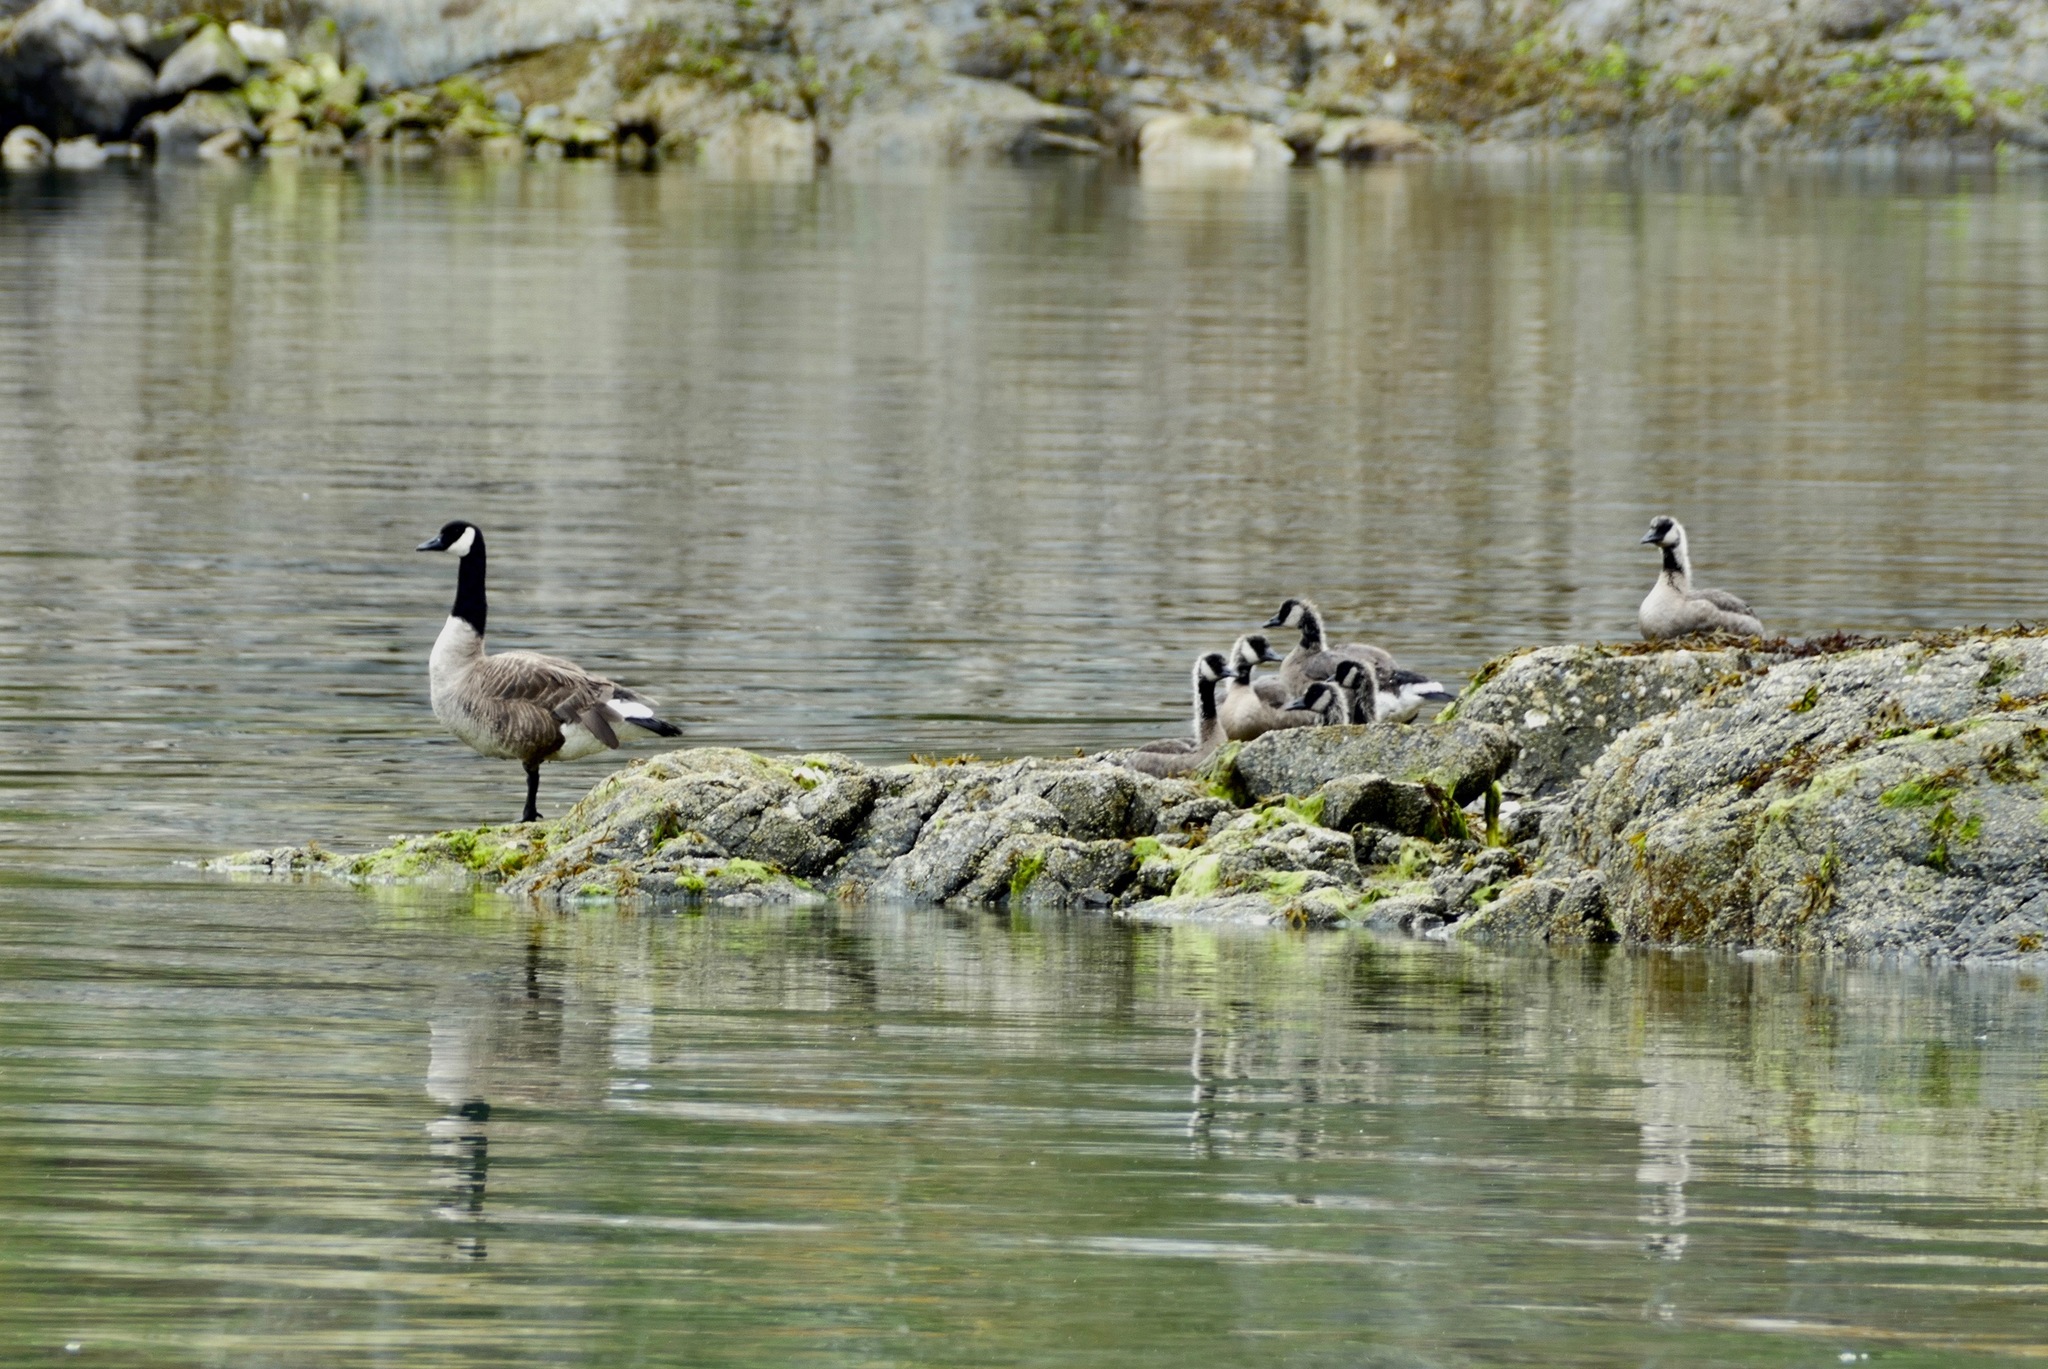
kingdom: Animalia
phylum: Chordata
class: Aves
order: Anseriformes
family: Anatidae
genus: Branta
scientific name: Branta canadensis
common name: Canada goose
